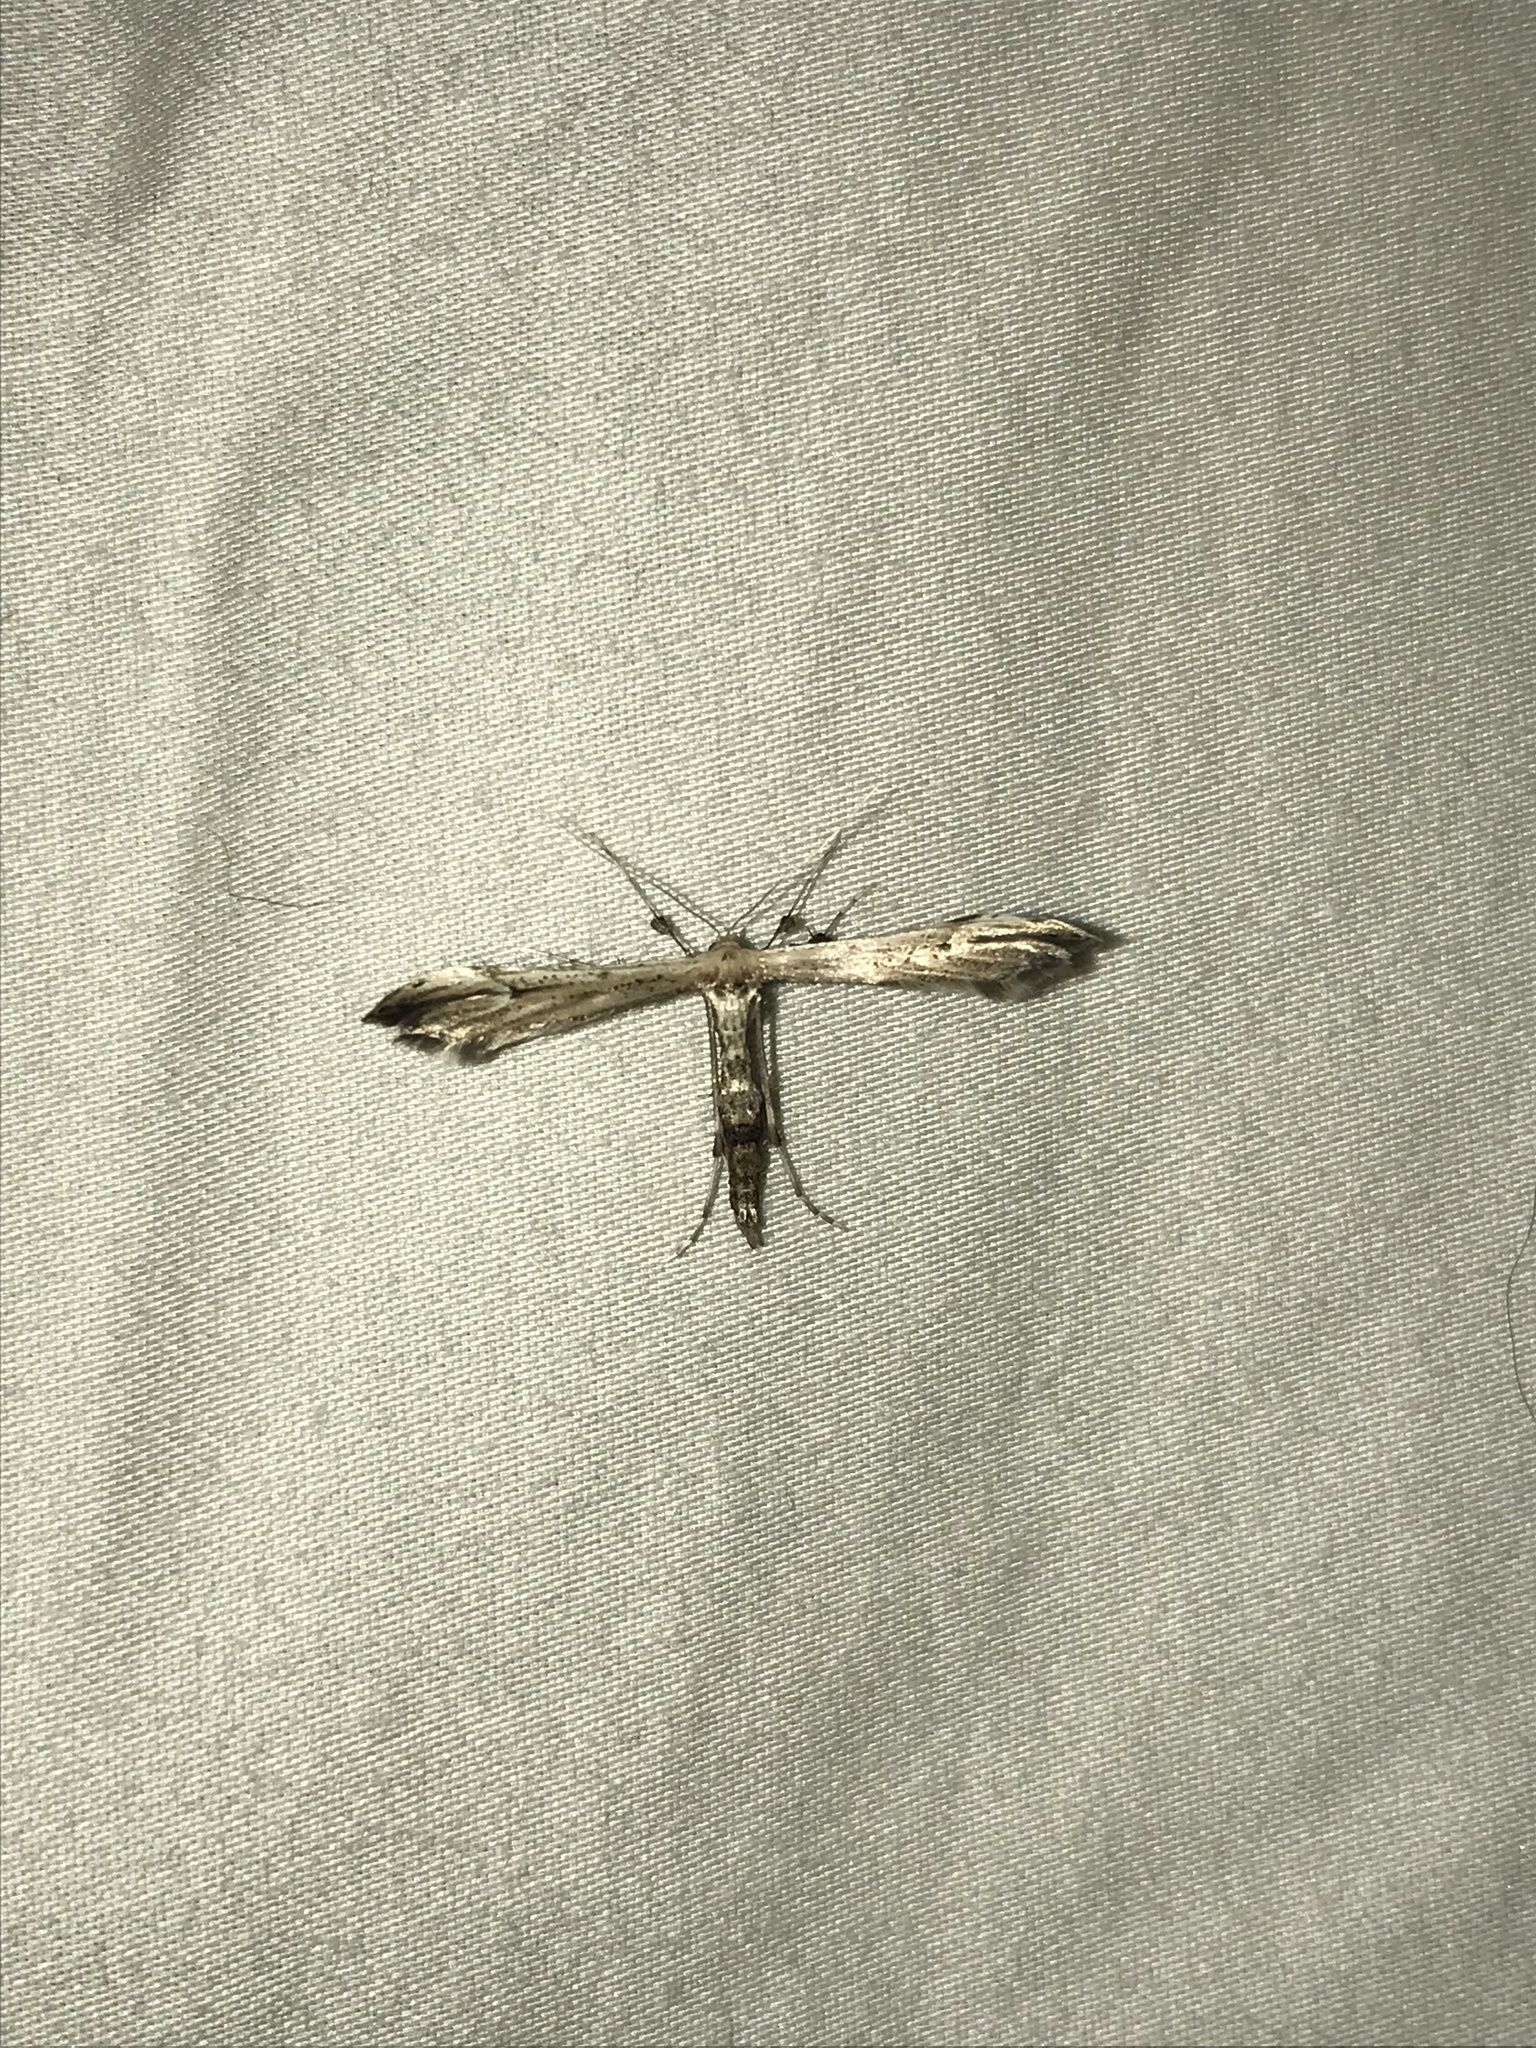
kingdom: Animalia
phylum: Arthropoda
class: Insecta
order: Lepidoptera
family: Pterophoridae
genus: Oidaematophorus
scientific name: Oidaematophorus eupatorii
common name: Eupatorium plume moth
